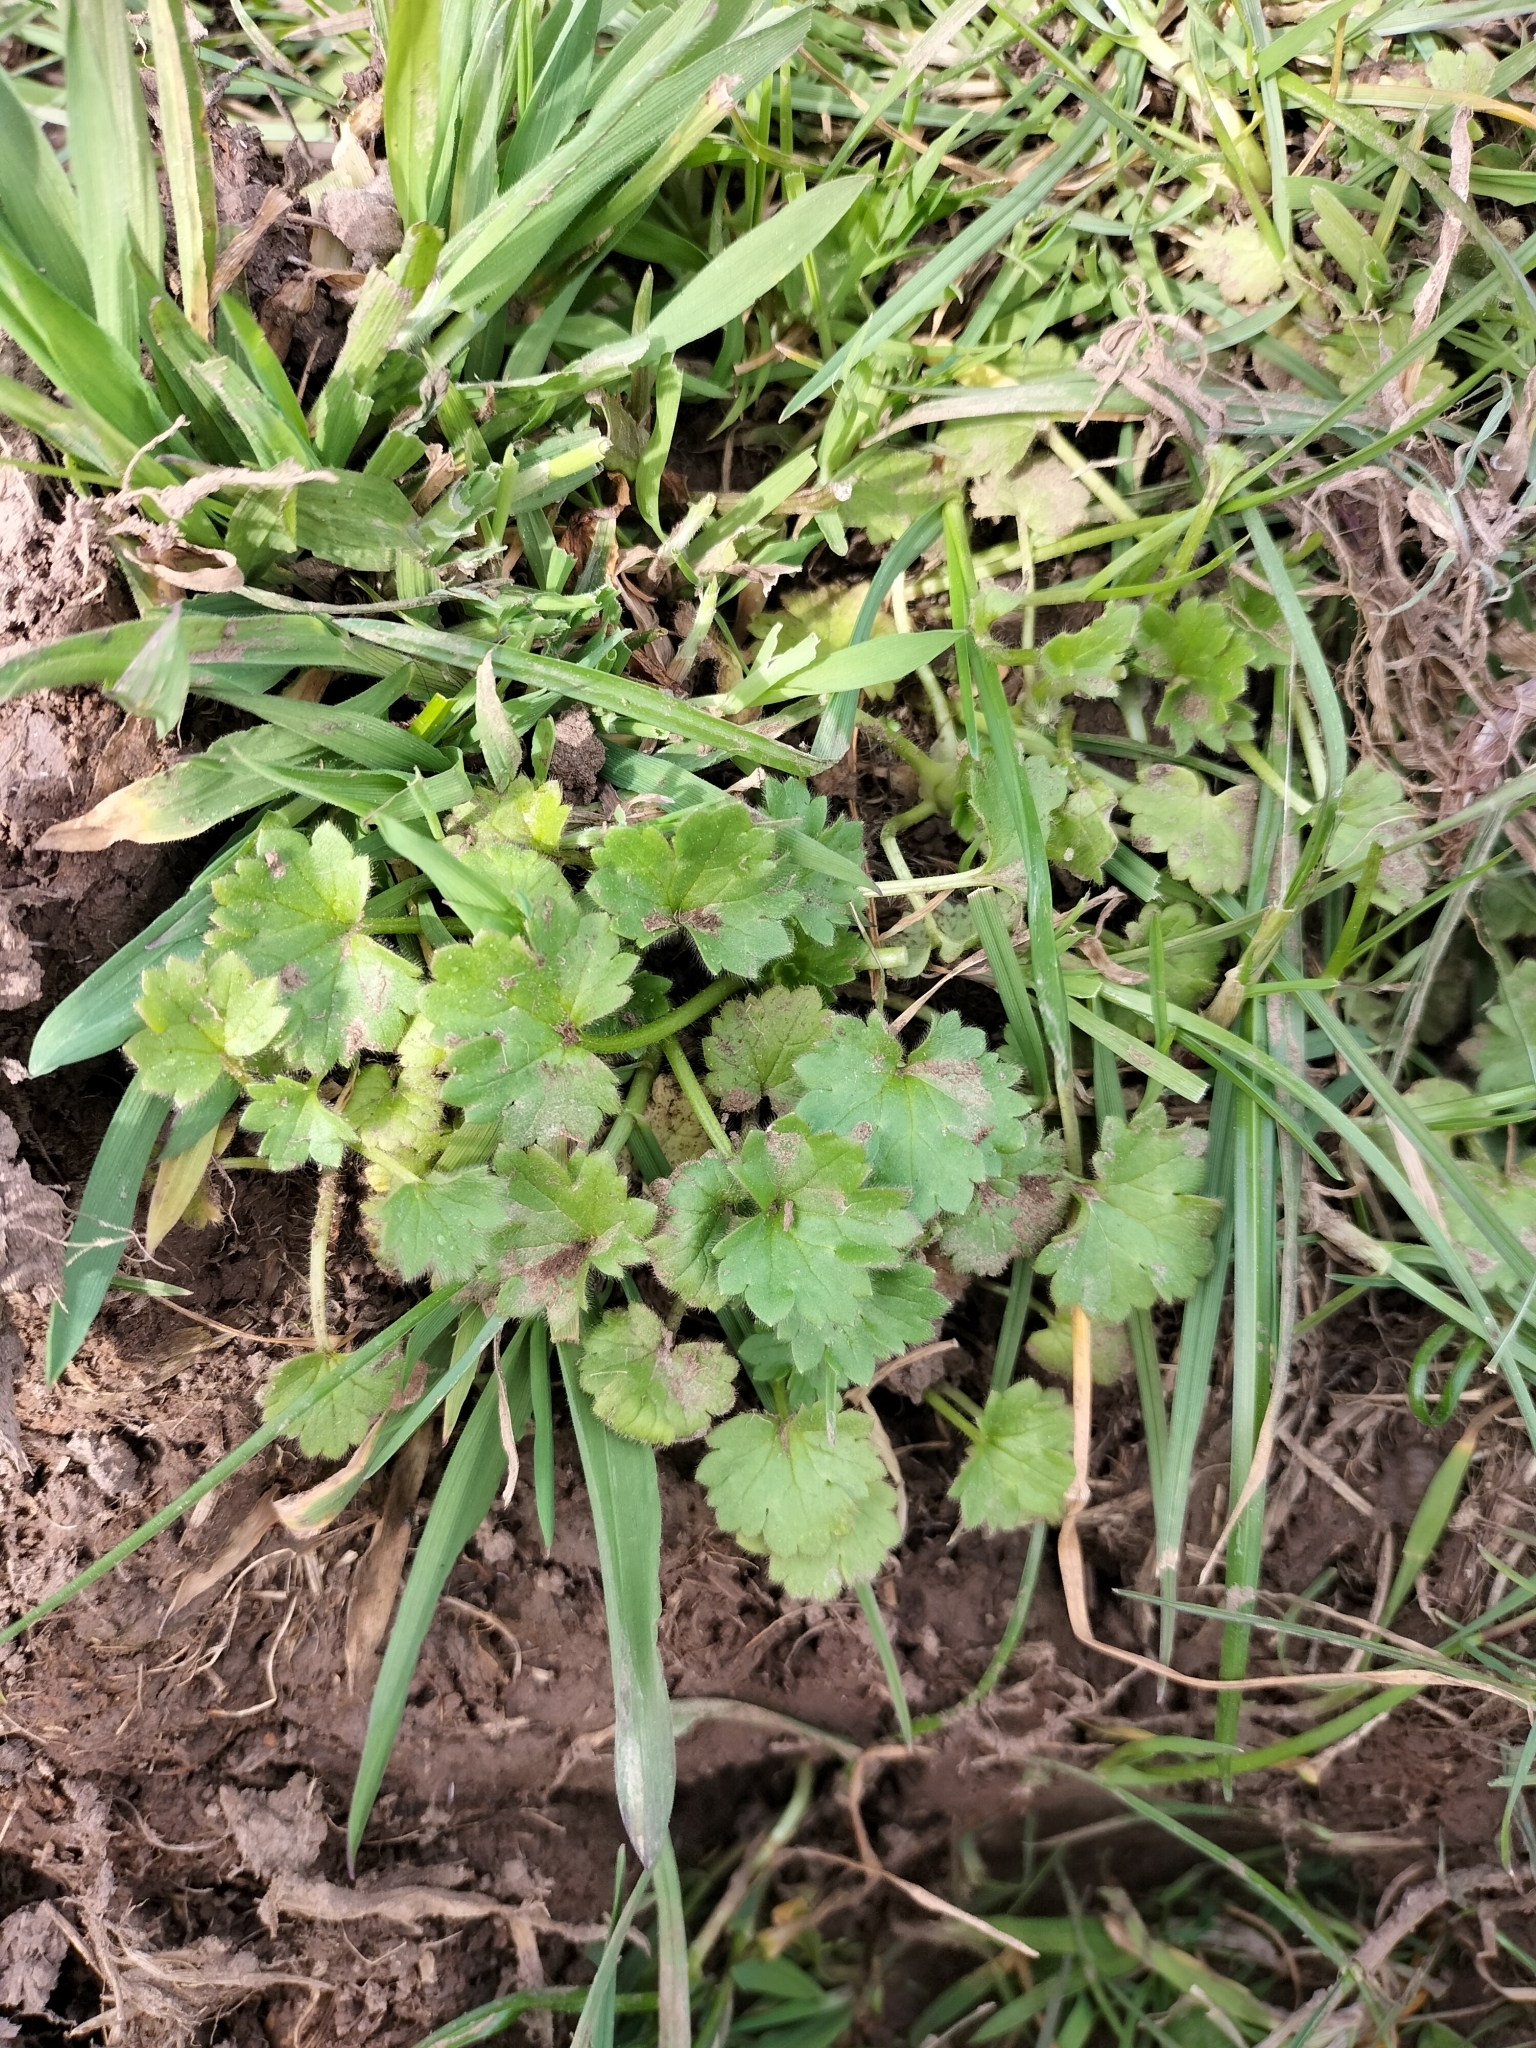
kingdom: Plantae
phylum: Tracheophyta
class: Magnoliopsida
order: Ranunculales
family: Ranunculaceae
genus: Ranunculus
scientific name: Ranunculus parviflorus
